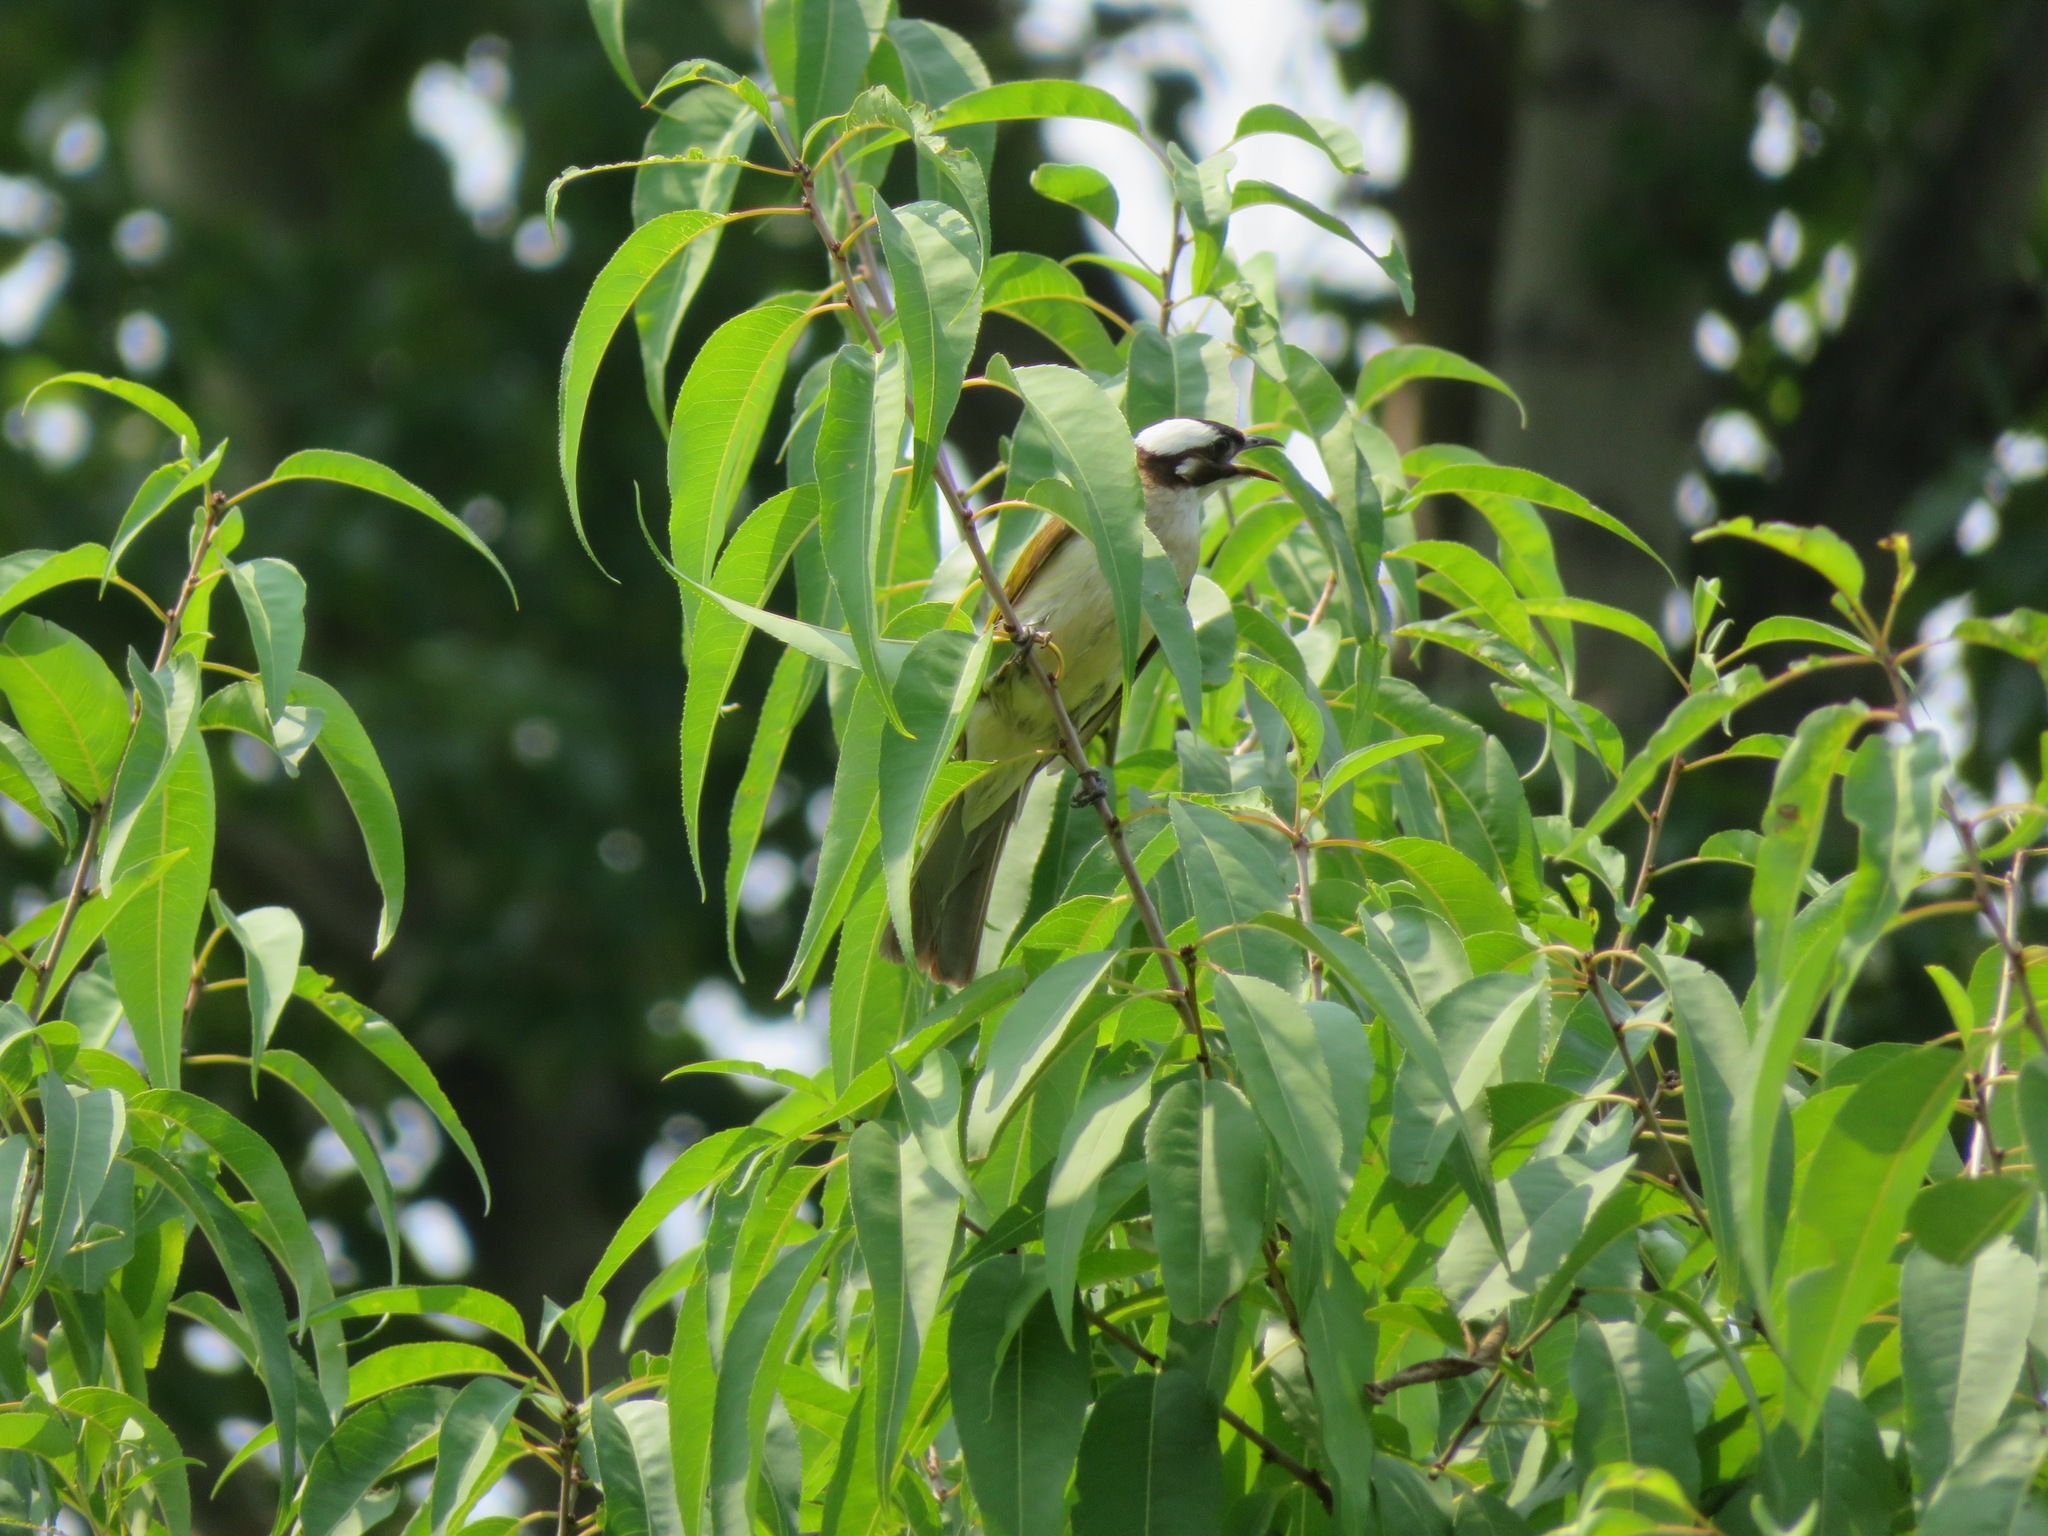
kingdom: Animalia
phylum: Chordata
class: Aves
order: Passeriformes
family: Pycnonotidae
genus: Pycnonotus
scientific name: Pycnonotus sinensis
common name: Light-vented bulbul
